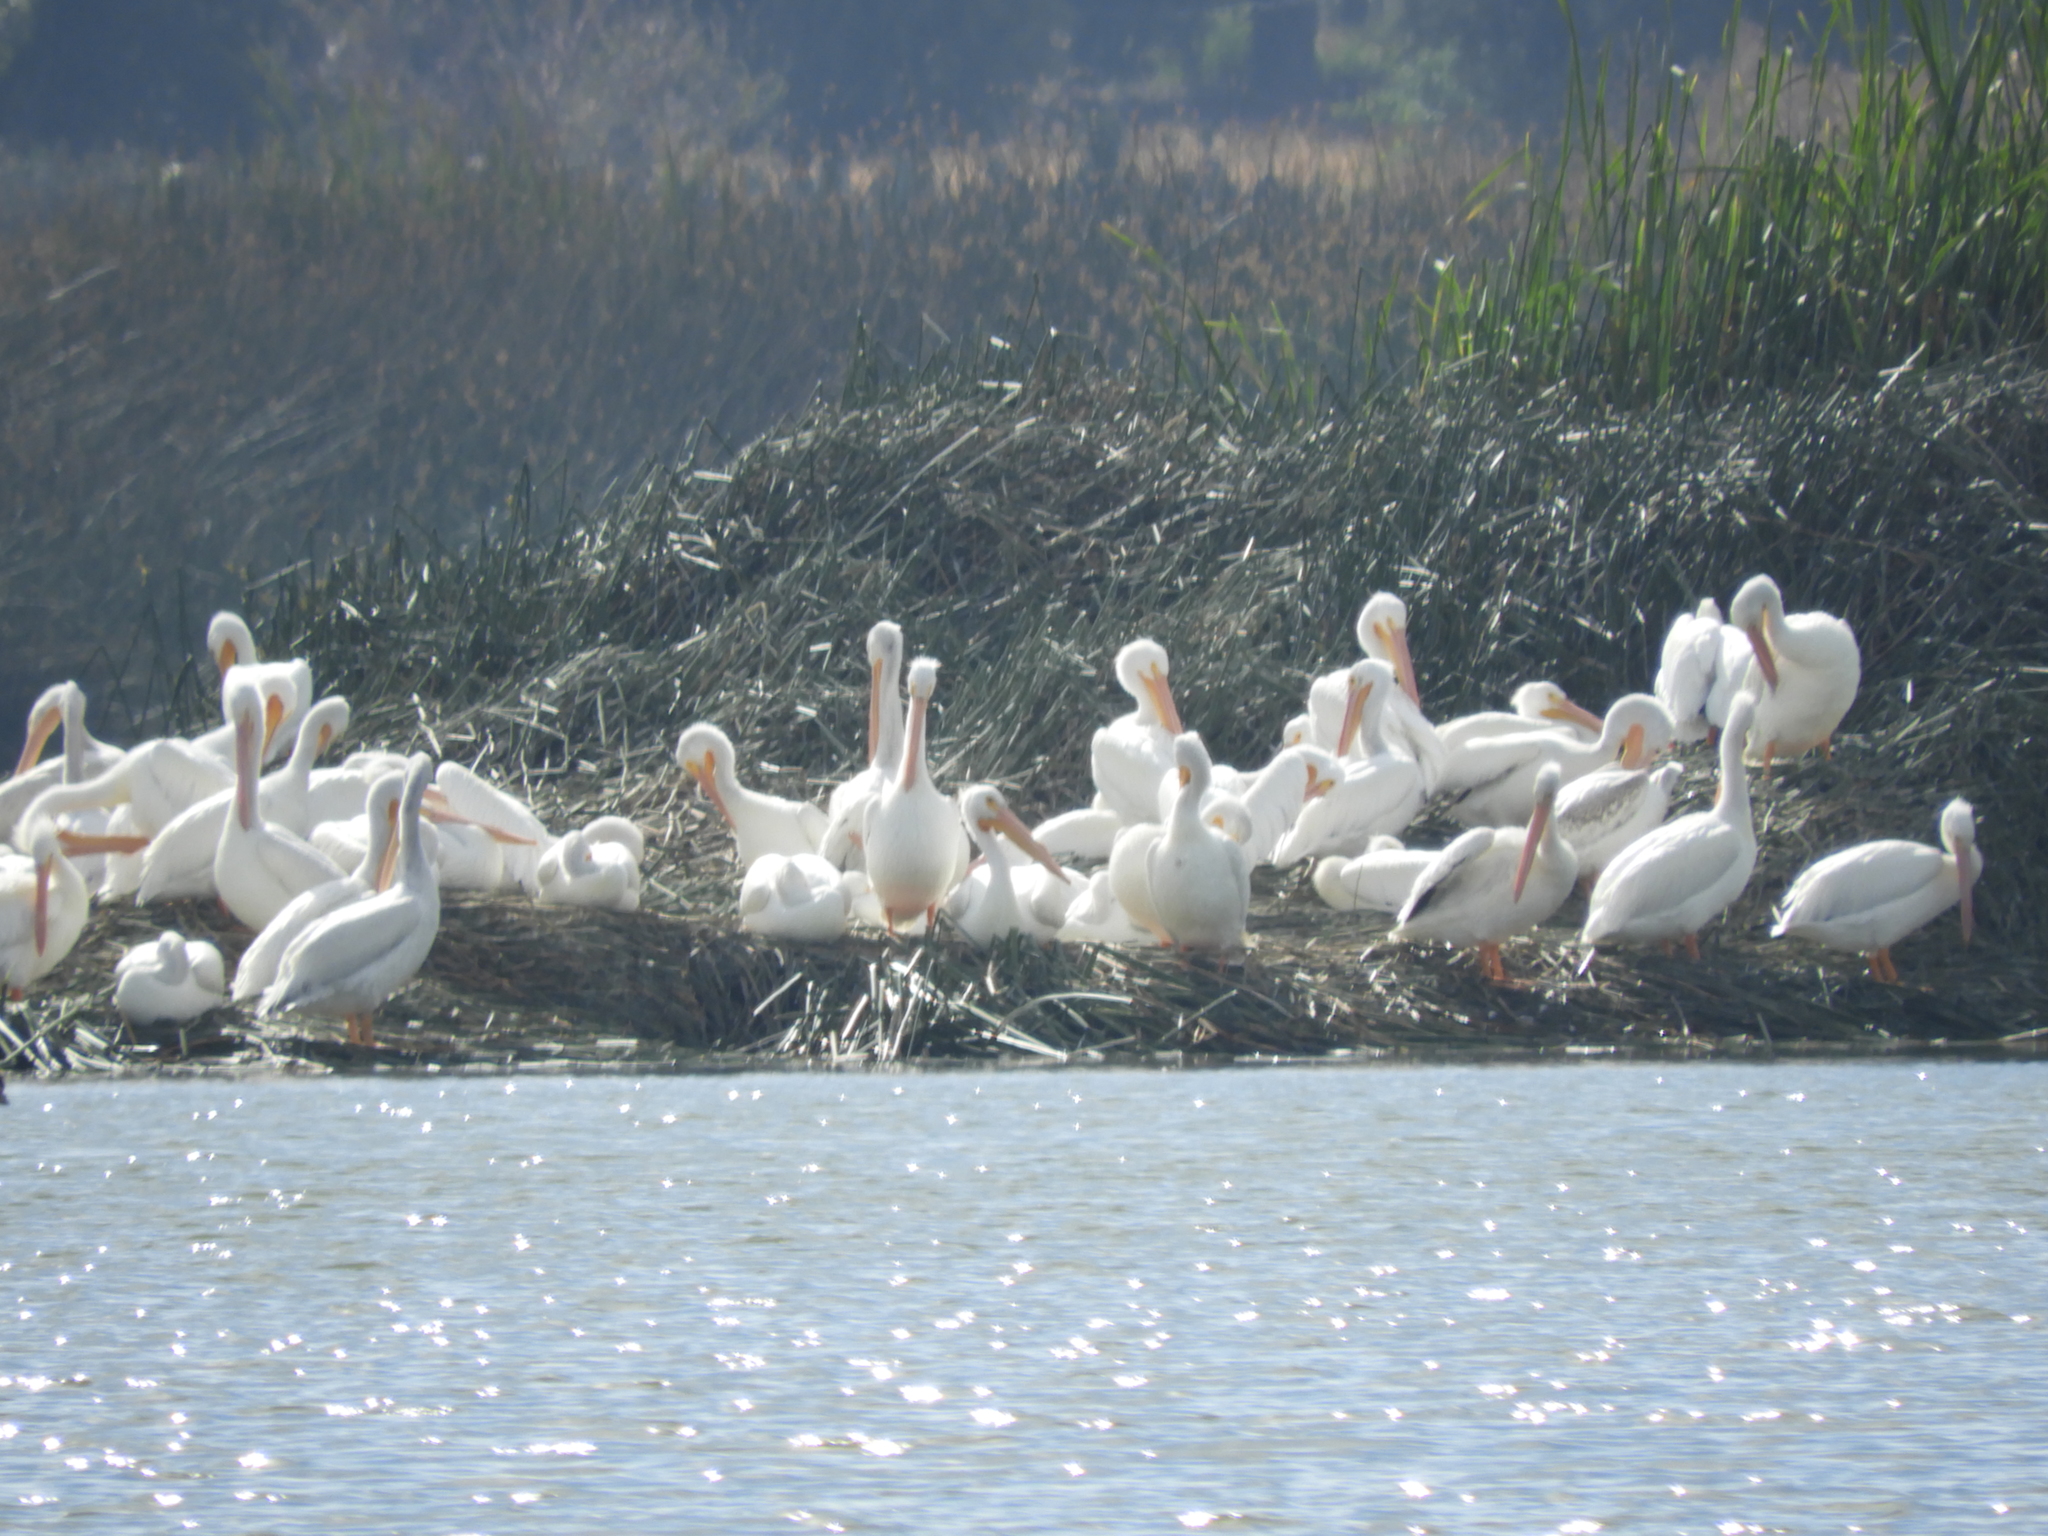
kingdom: Animalia
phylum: Chordata
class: Aves
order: Pelecaniformes
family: Pelecanidae
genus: Pelecanus
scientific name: Pelecanus erythrorhynchos
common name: American white pelican
